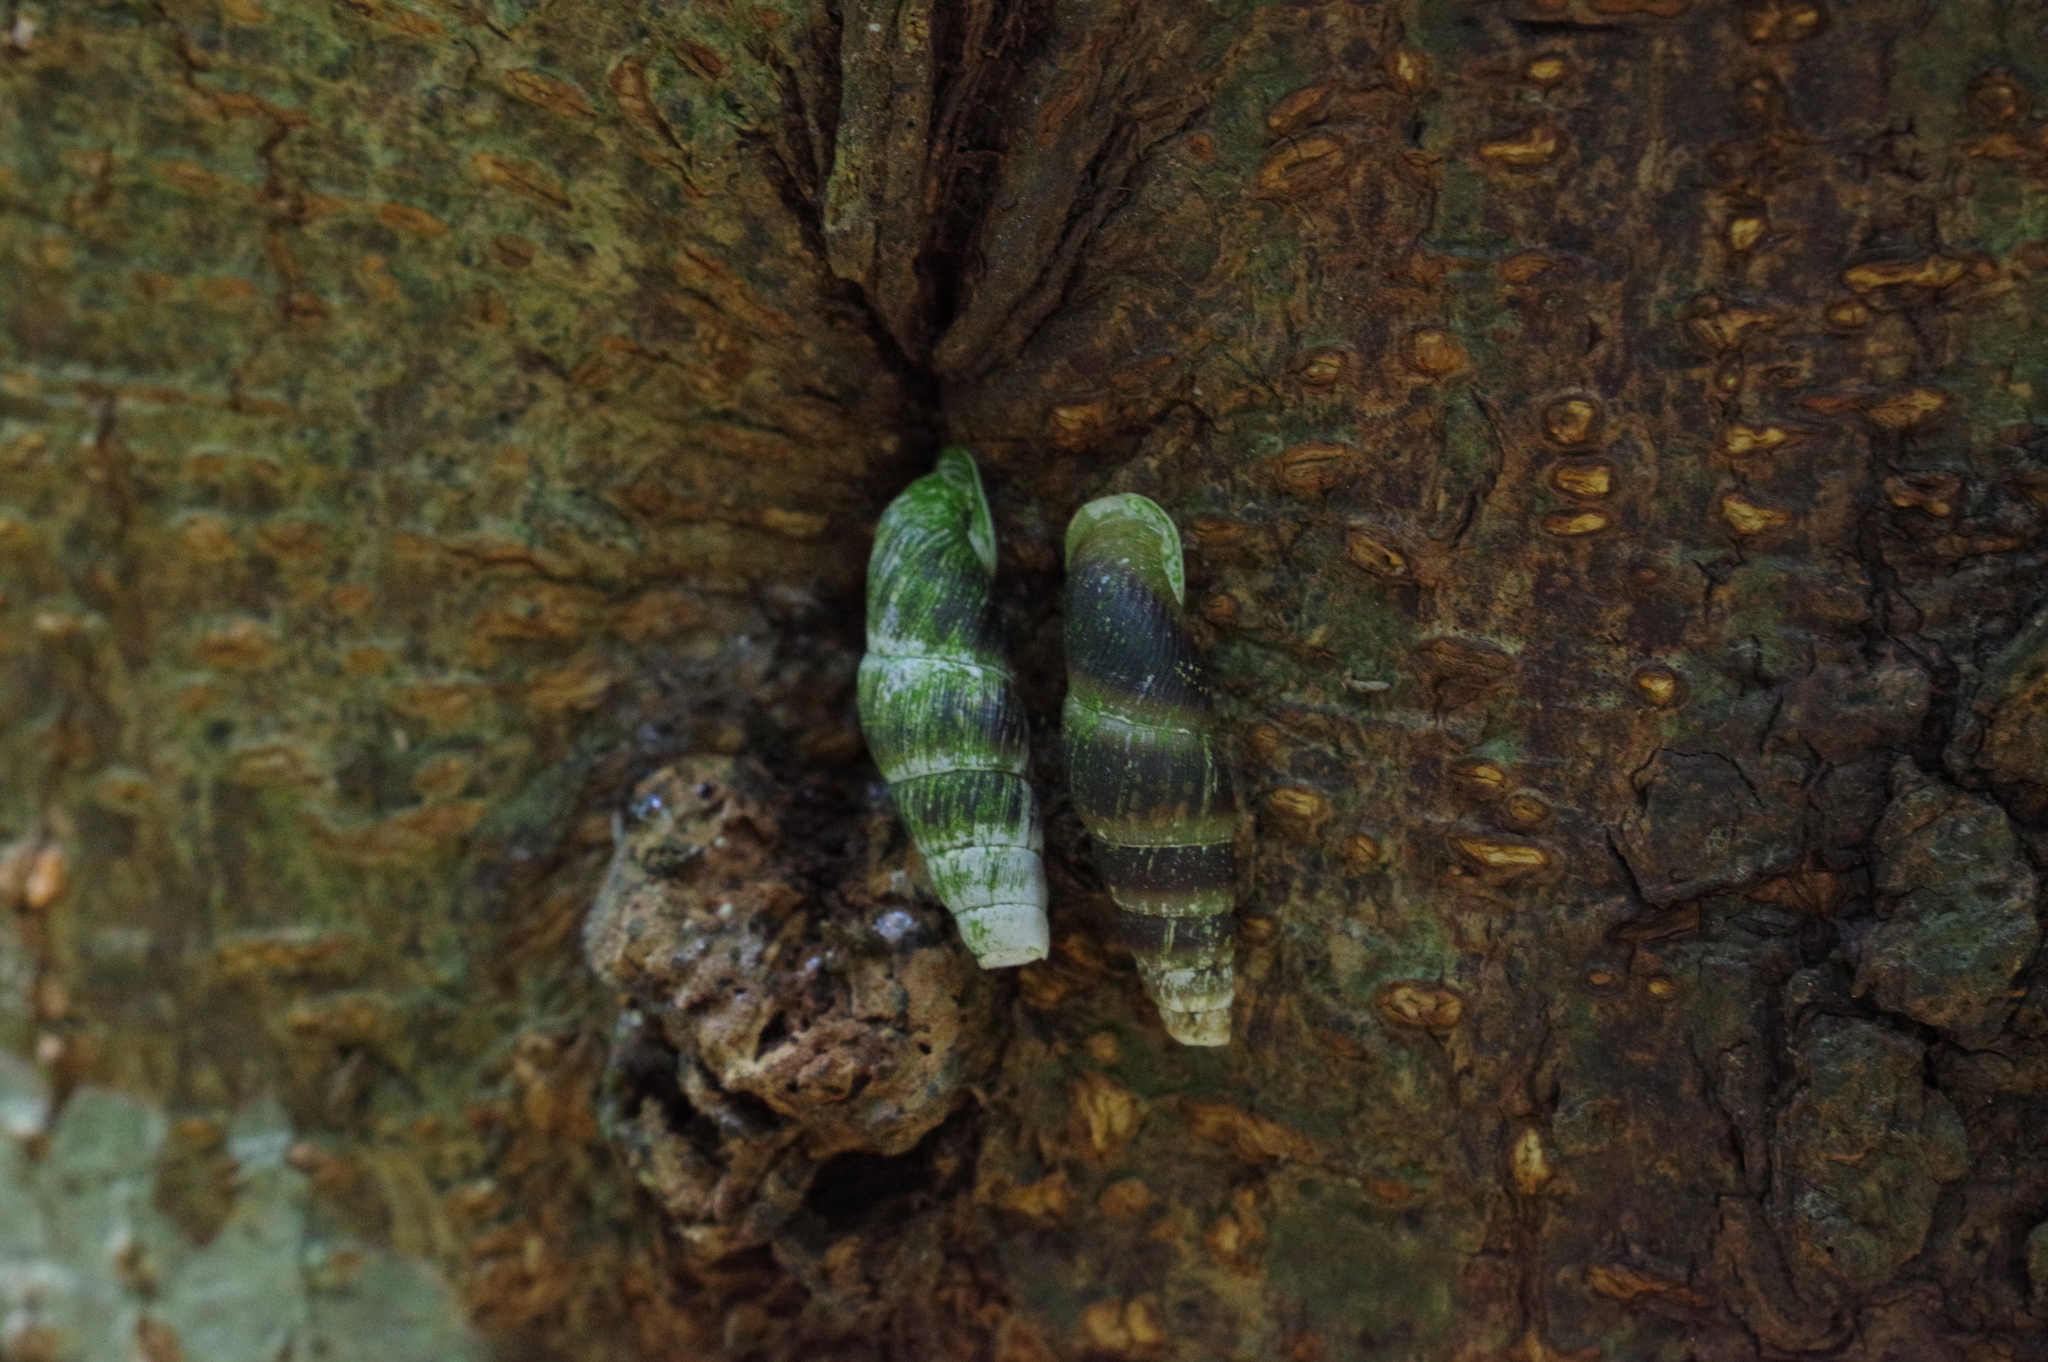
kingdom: Animalia
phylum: Mollusca
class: Gastropoda
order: Stylommatophora
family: Clausiliidae
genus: Stereophaedusa
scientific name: Stereophaedusa valida
